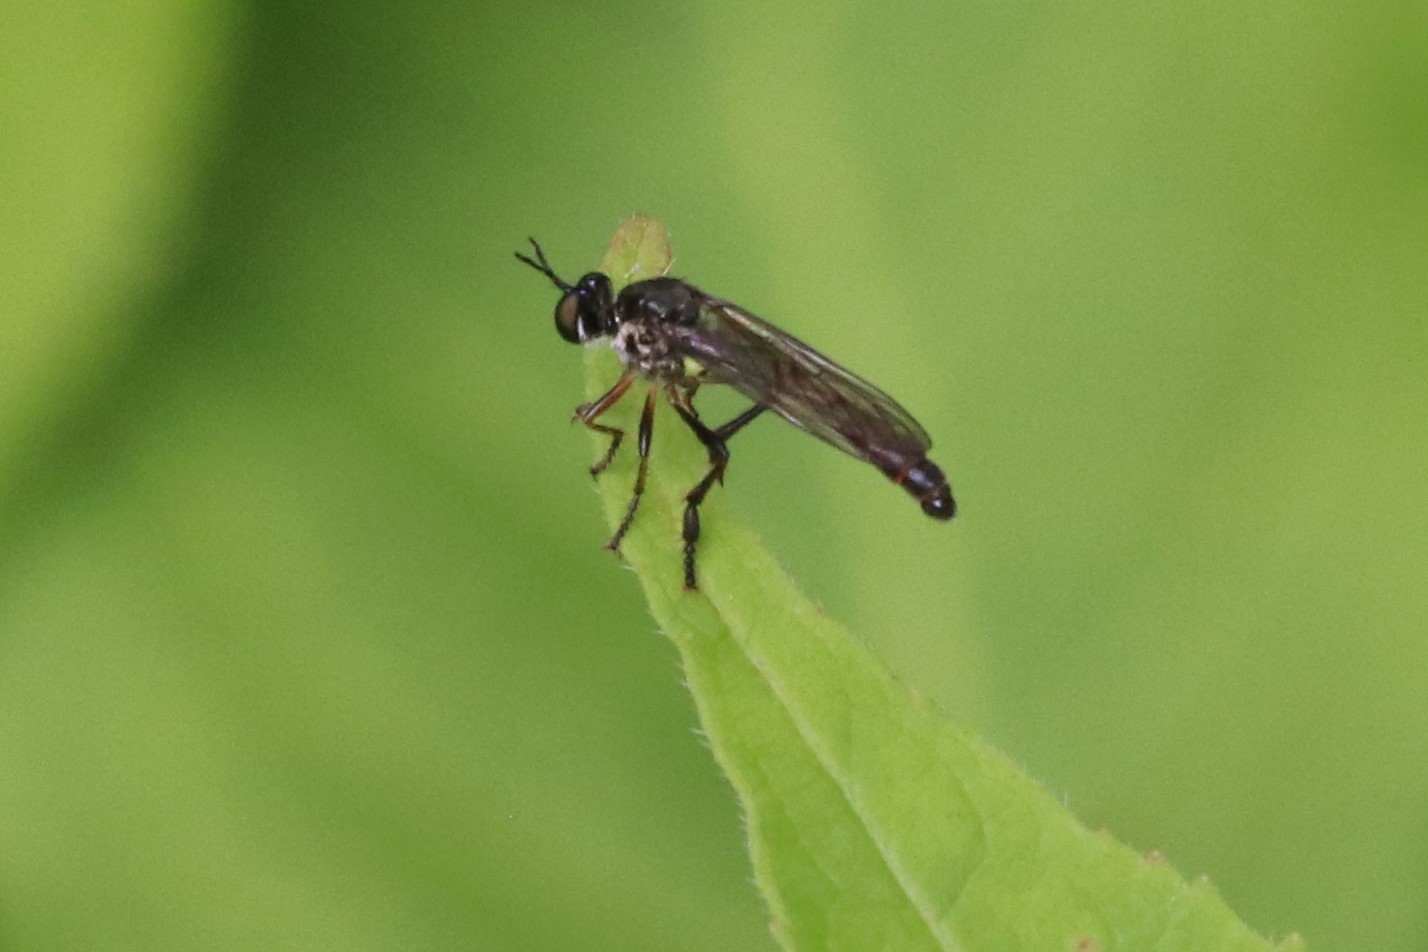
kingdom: Animalia
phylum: Arthropoda
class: Insecta
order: Diptera
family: Asilidae
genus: Dioctria
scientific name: Dioctria hyalipennis
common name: Stripe-legged robberfly
